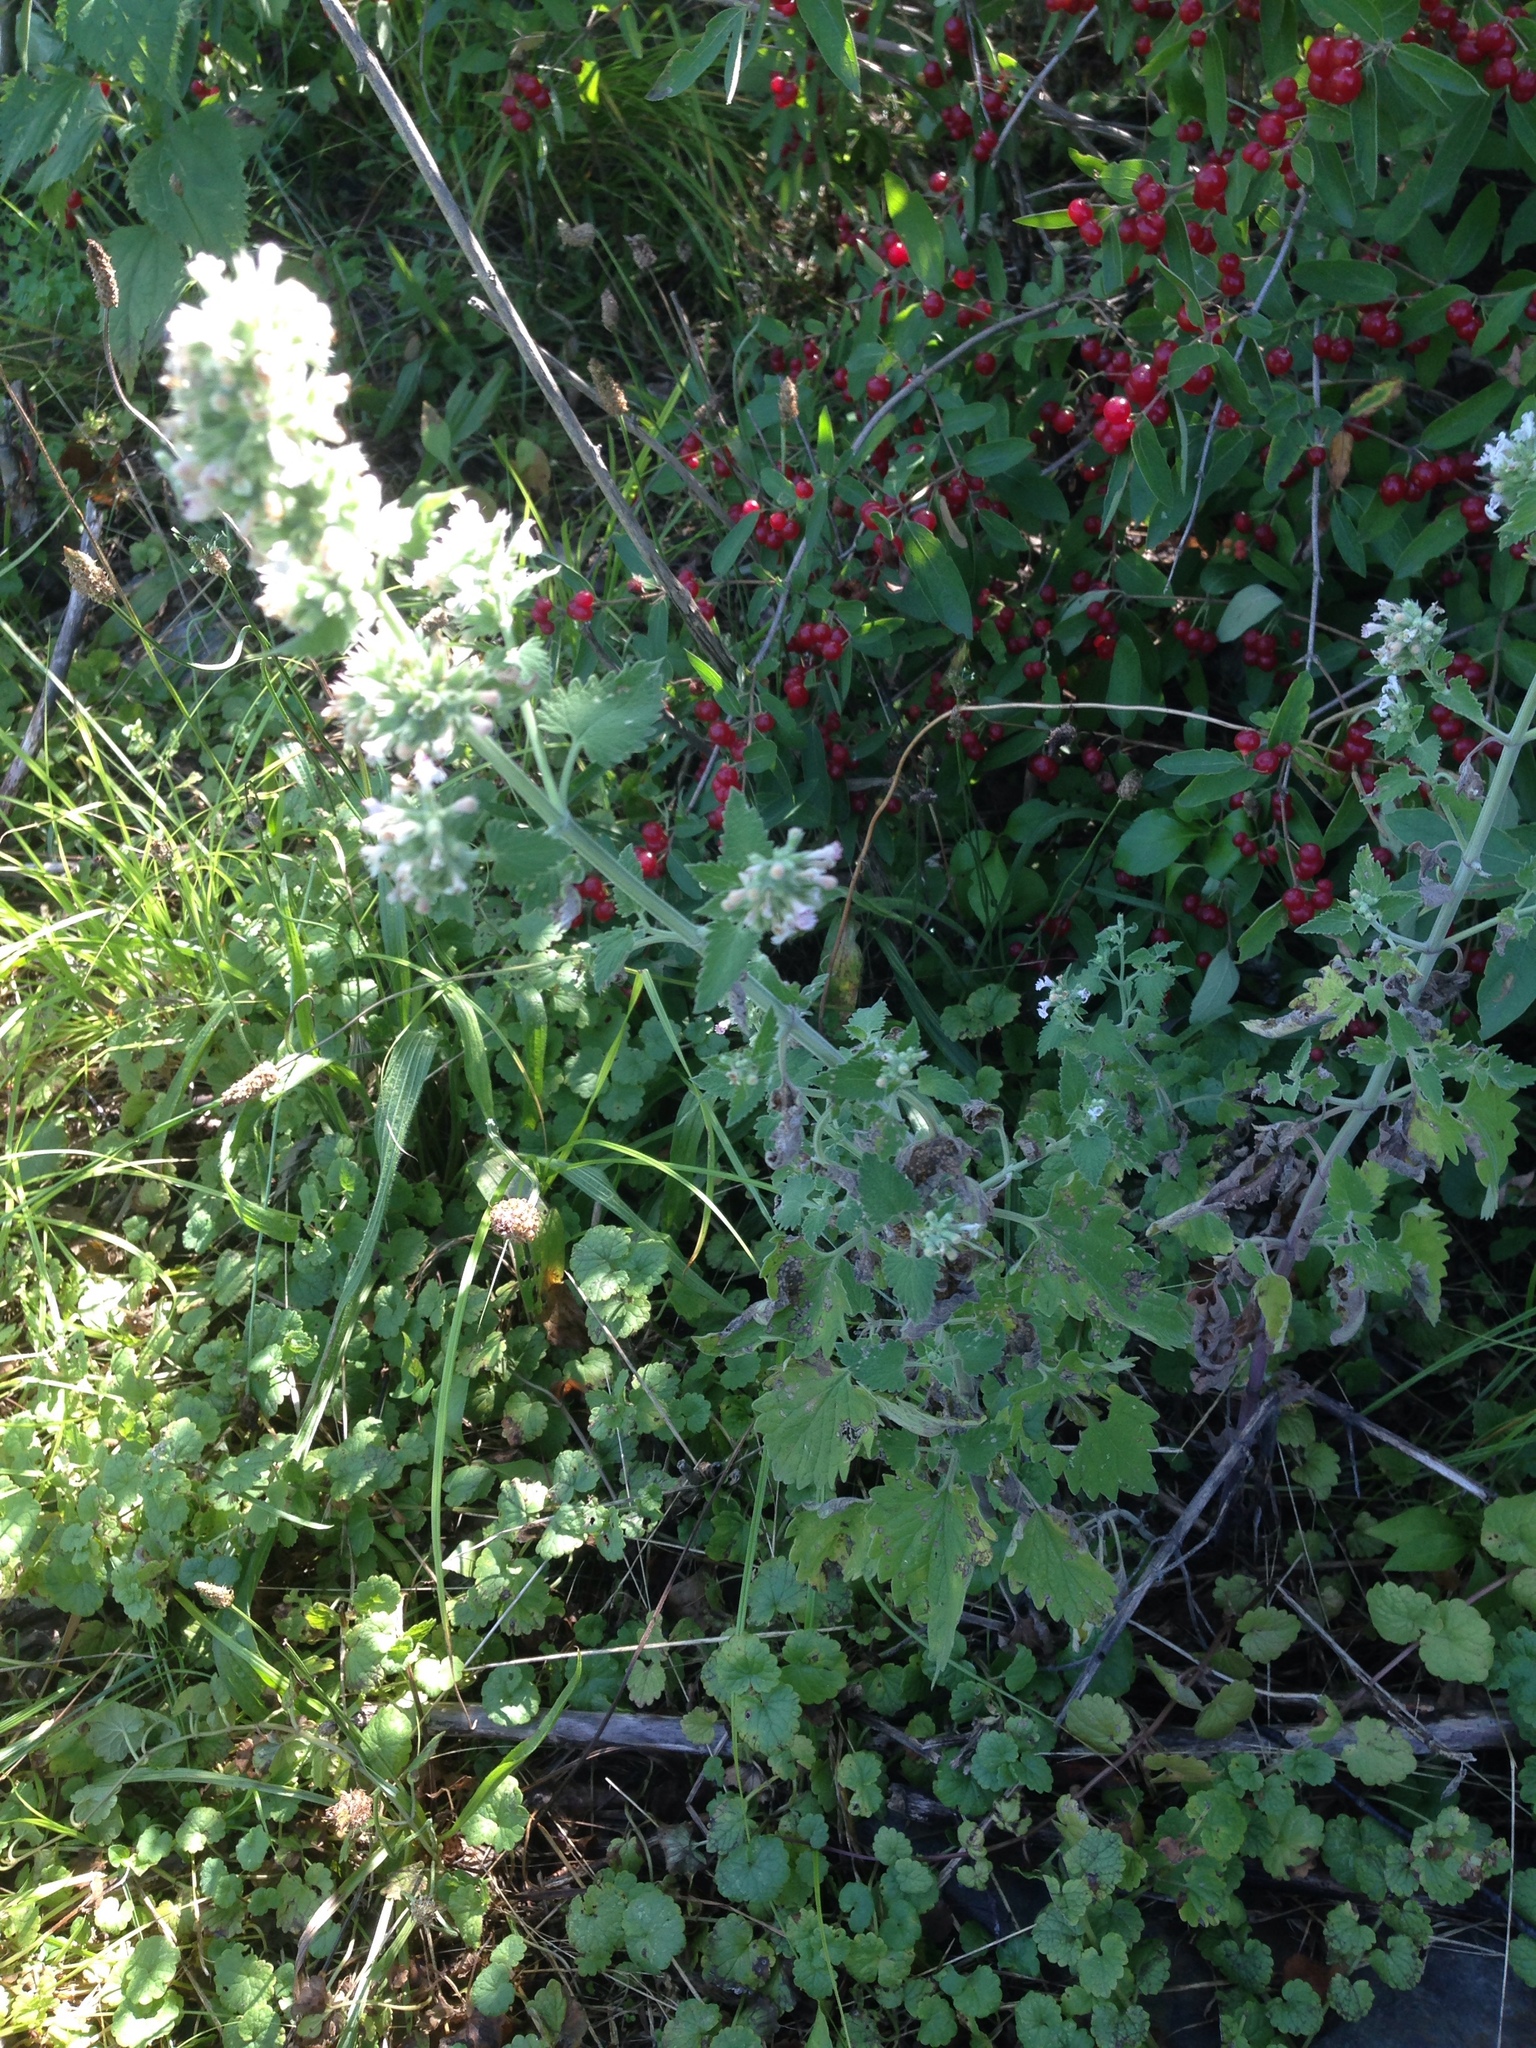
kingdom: Plantae
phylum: Tracheophyta
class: Magnoliopsida
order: Lamiales
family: Lamiaceae
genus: Nepeta
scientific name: Nepeta cataria
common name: Catnip
